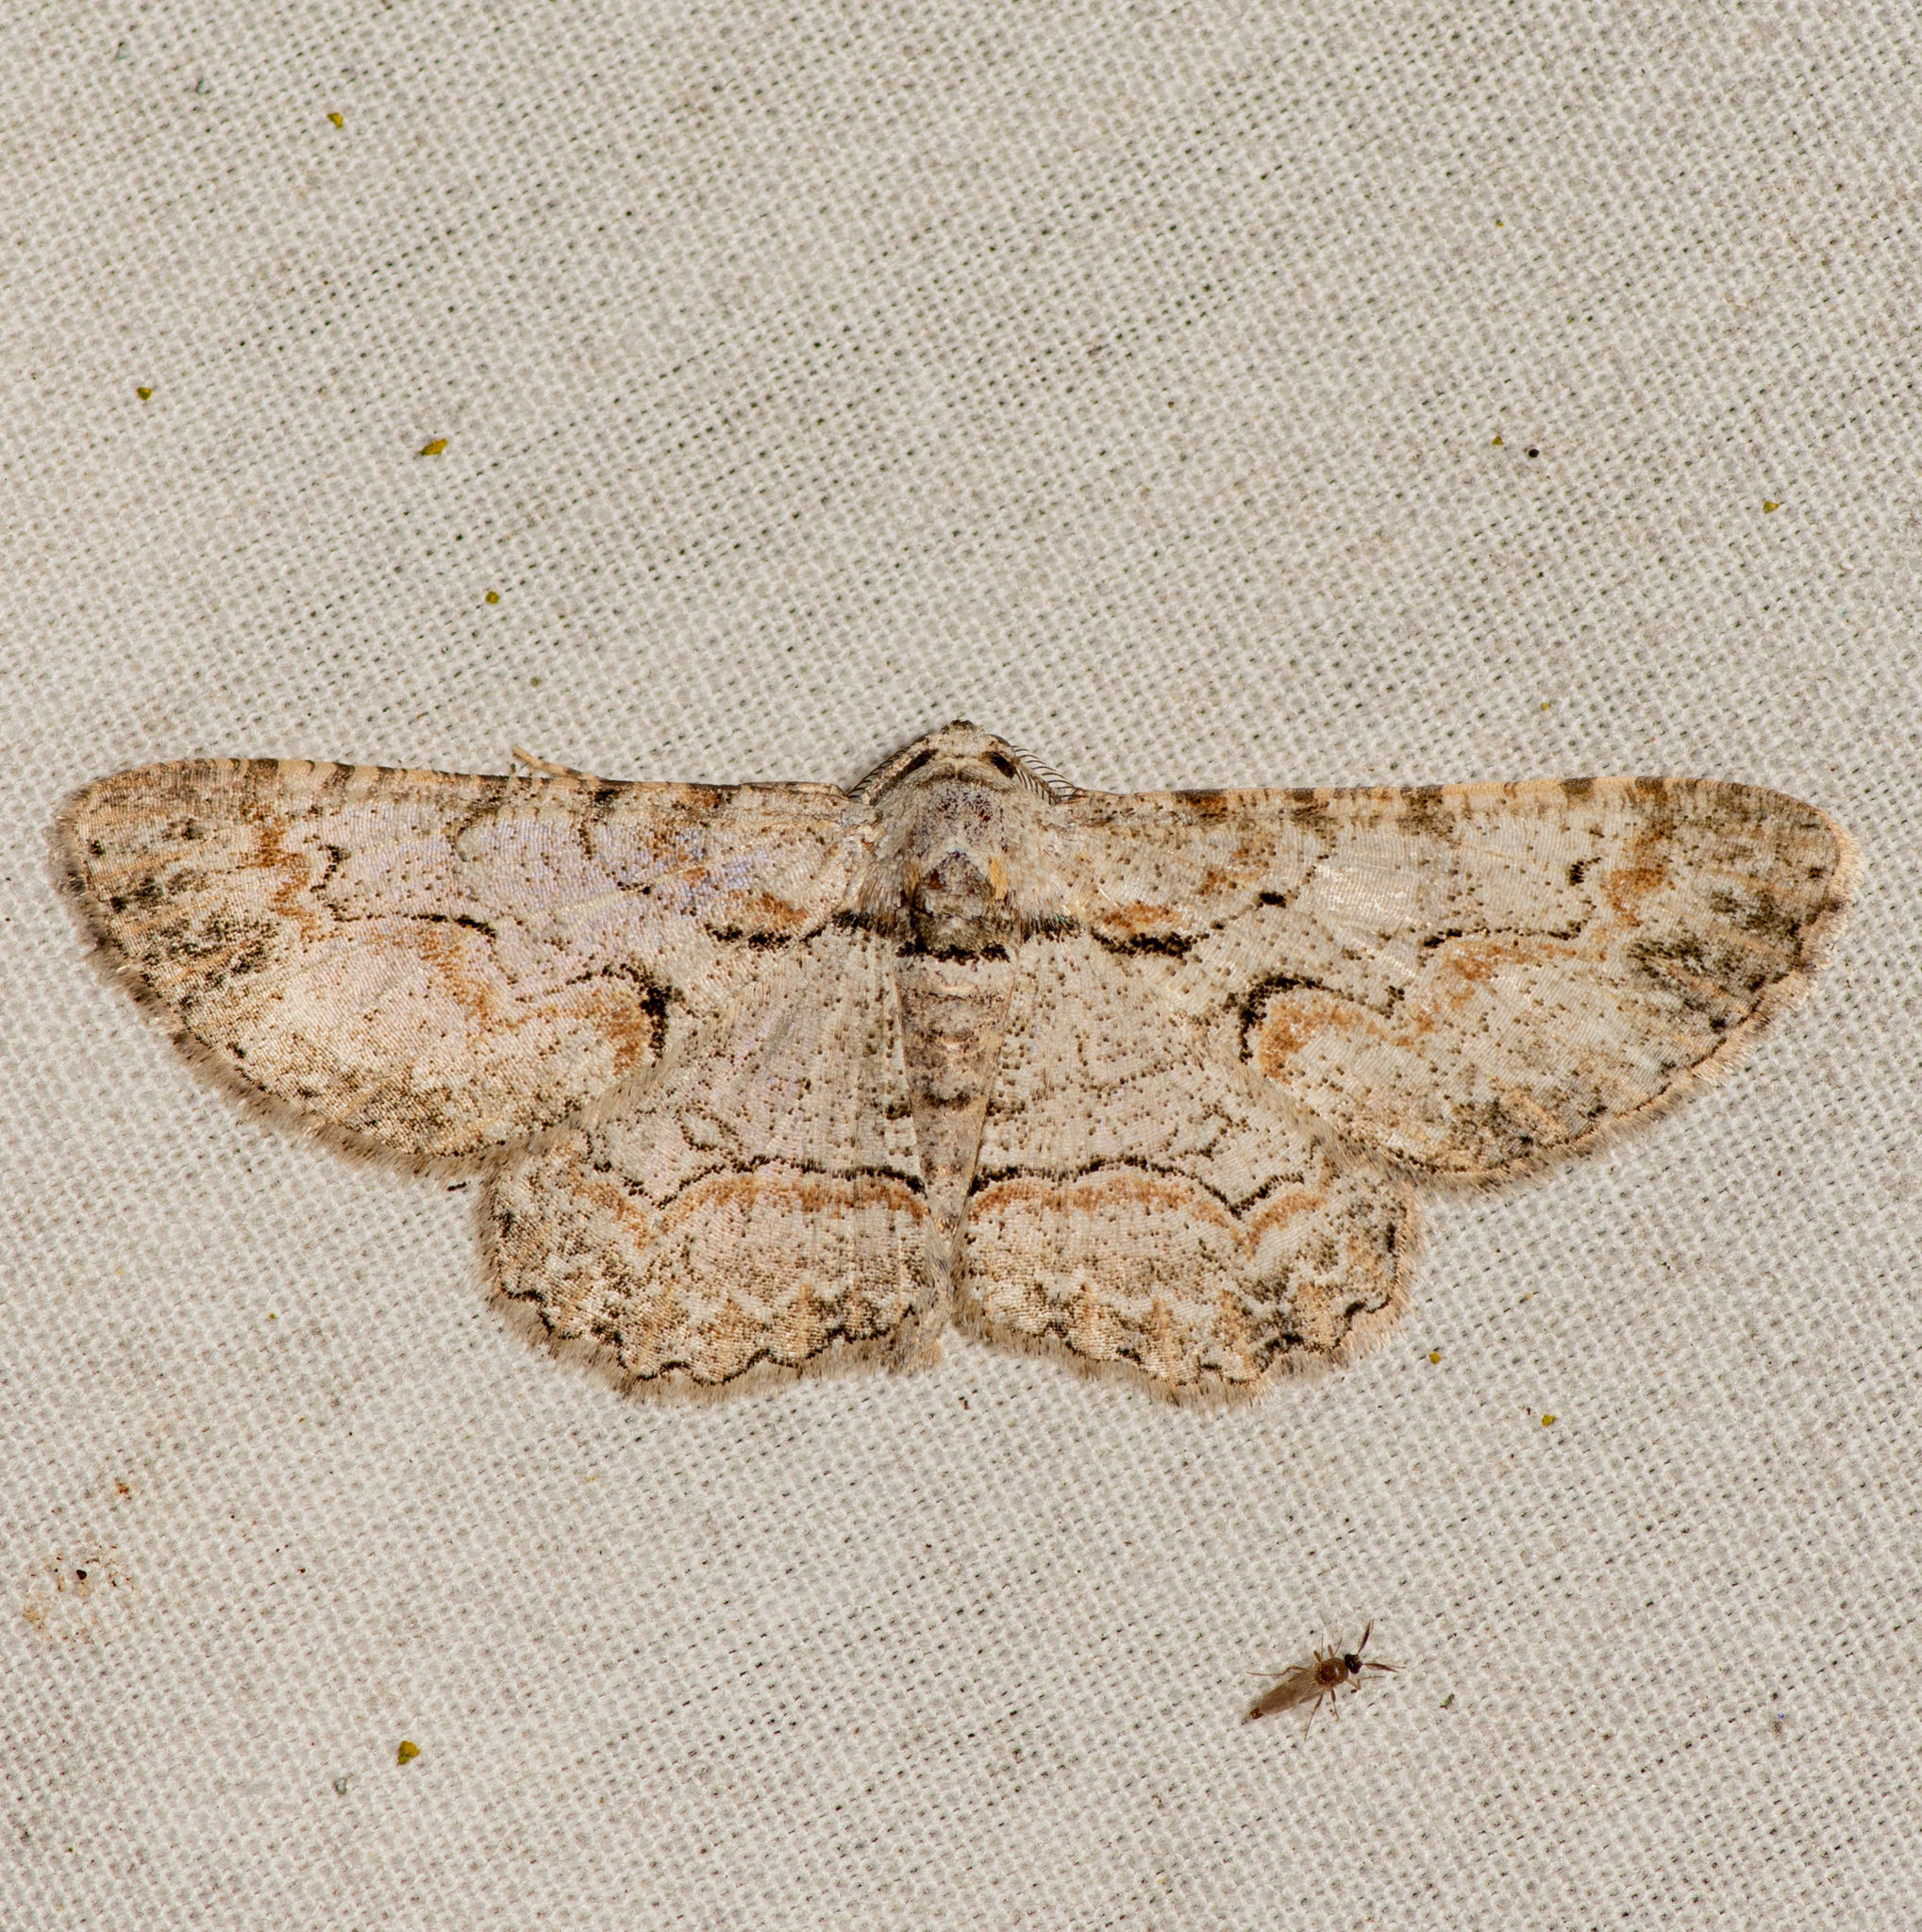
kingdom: Animalia
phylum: Arthropoda
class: Insecta
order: Lepidoptera
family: Geometridae
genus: Iridopsis
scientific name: Iridopsis defectaria
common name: Brown-shaded gray
